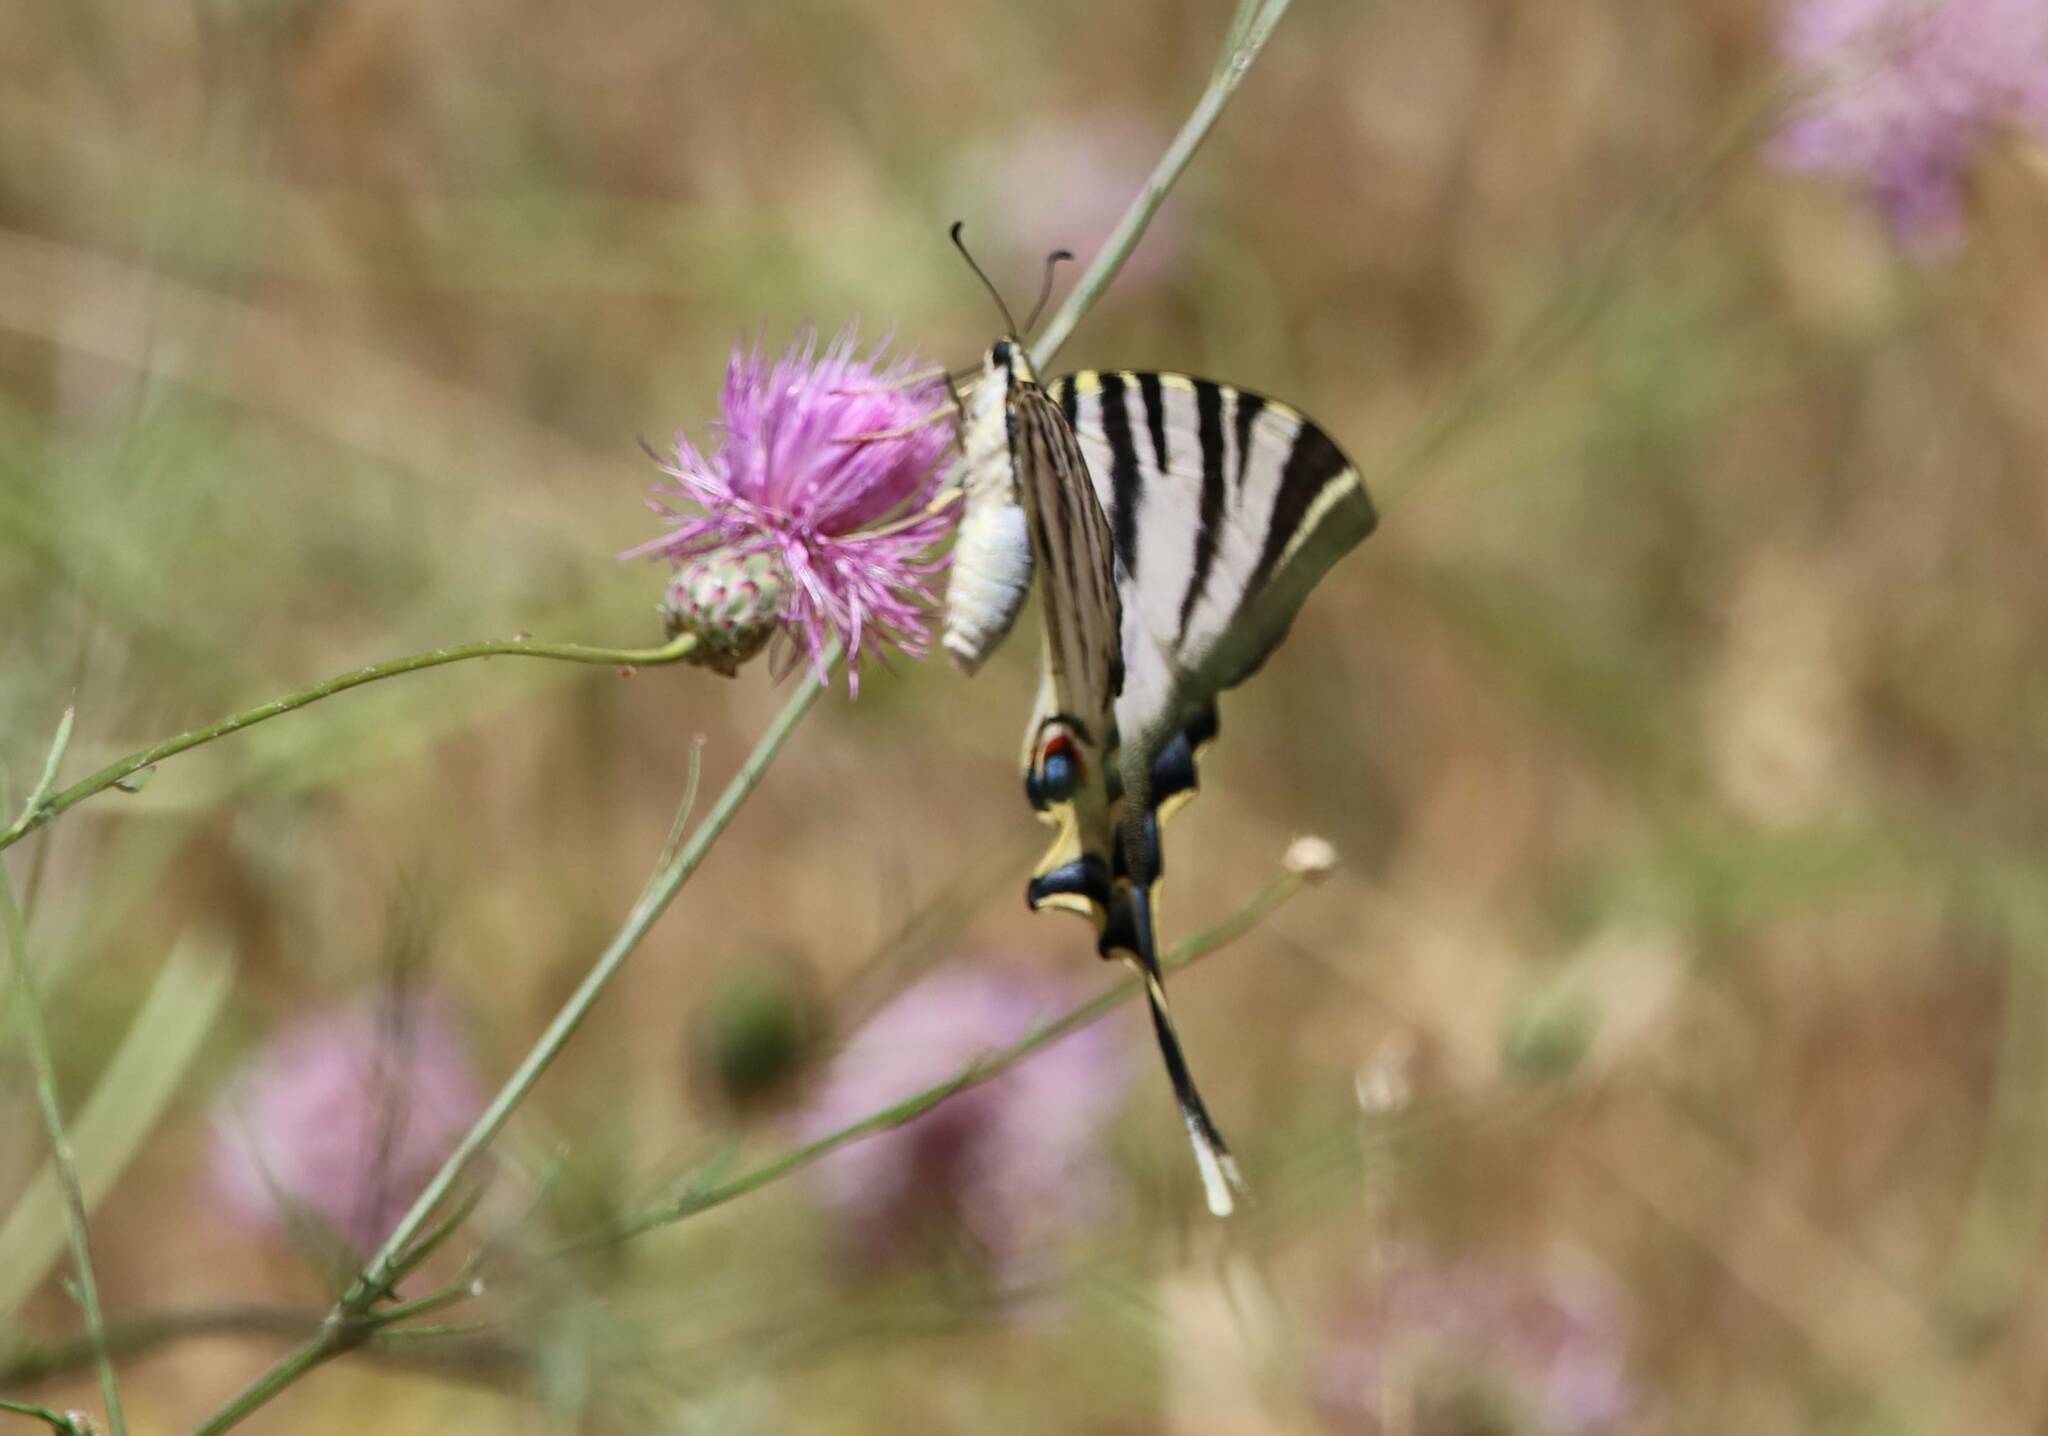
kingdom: Animalia
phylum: Arthropoda
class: Insecta
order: Lepidoptera
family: Papilionidae
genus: Iphiclides
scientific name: Iphiclides feisthamelii
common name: Iberian scarce swallowtail
